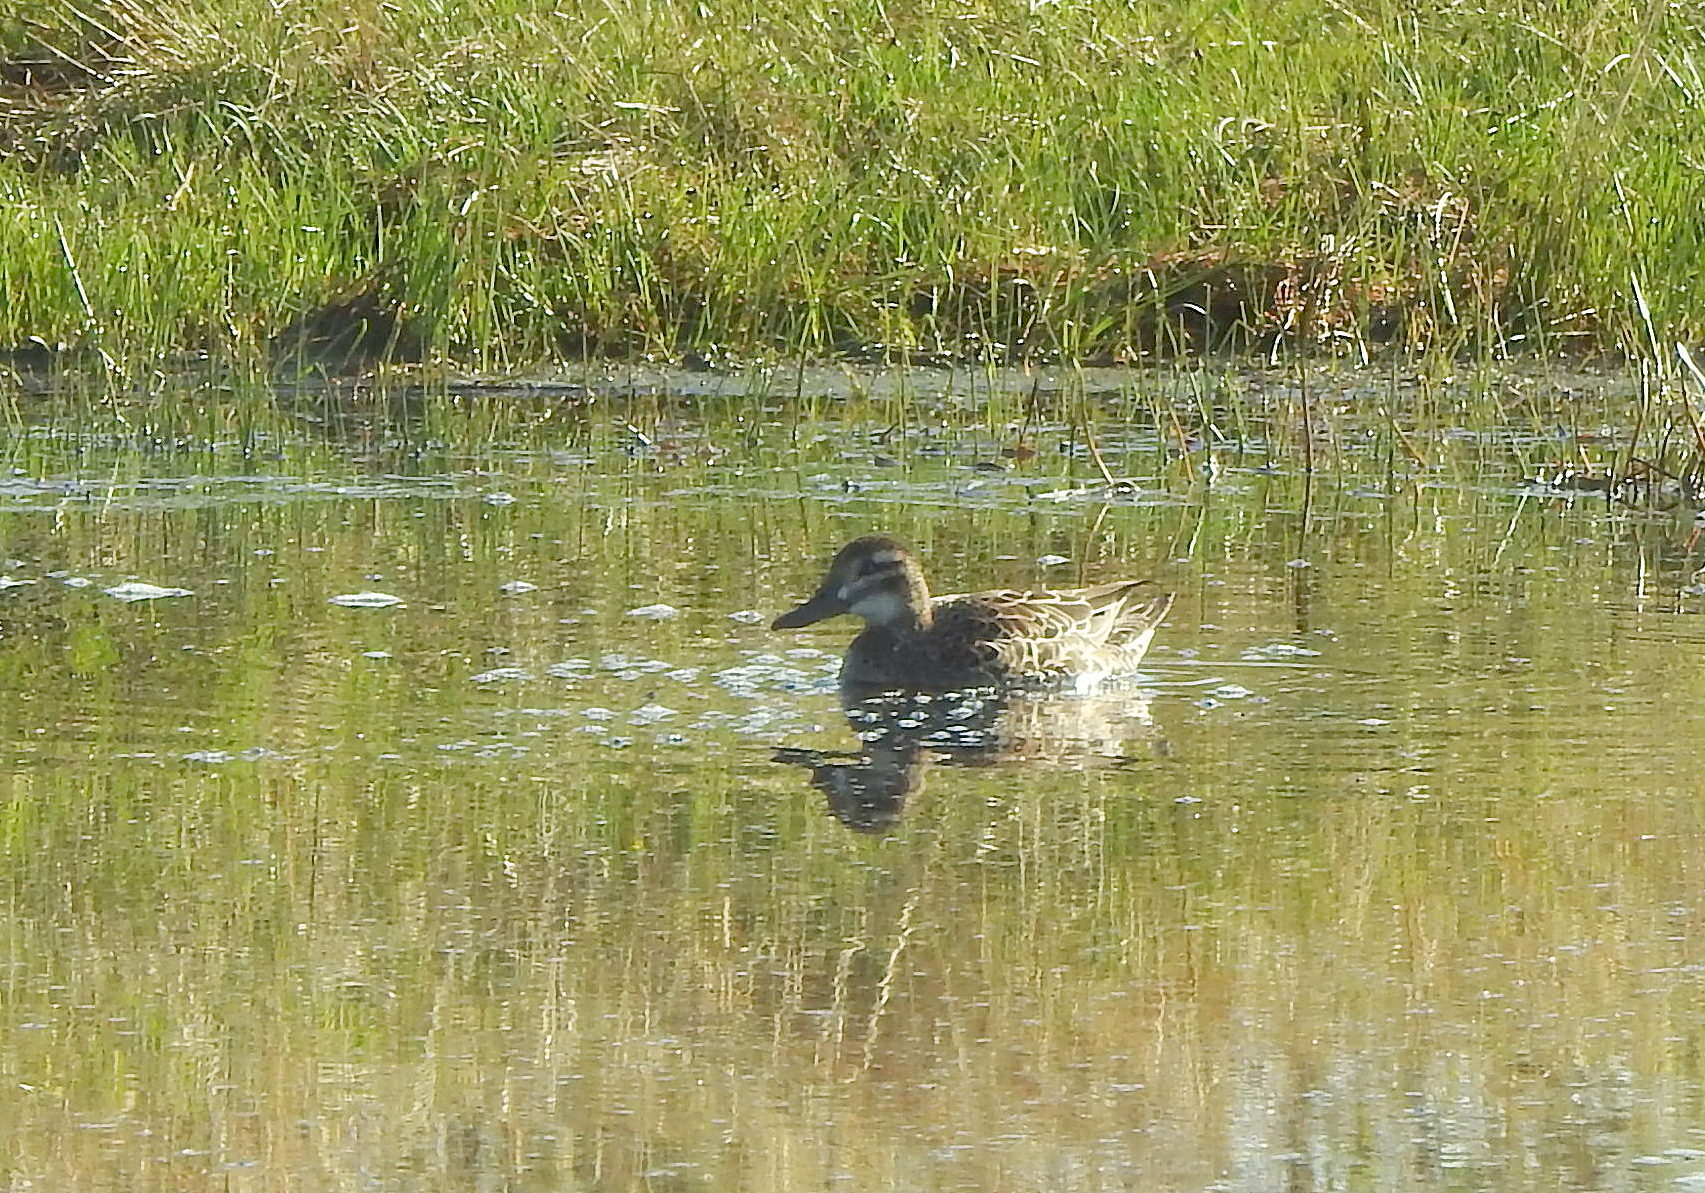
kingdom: Animalia
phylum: Chordata
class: Aves
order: Anseriformes
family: Anatidae
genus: Spatula
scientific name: Spatula querquedula
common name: Garganey
